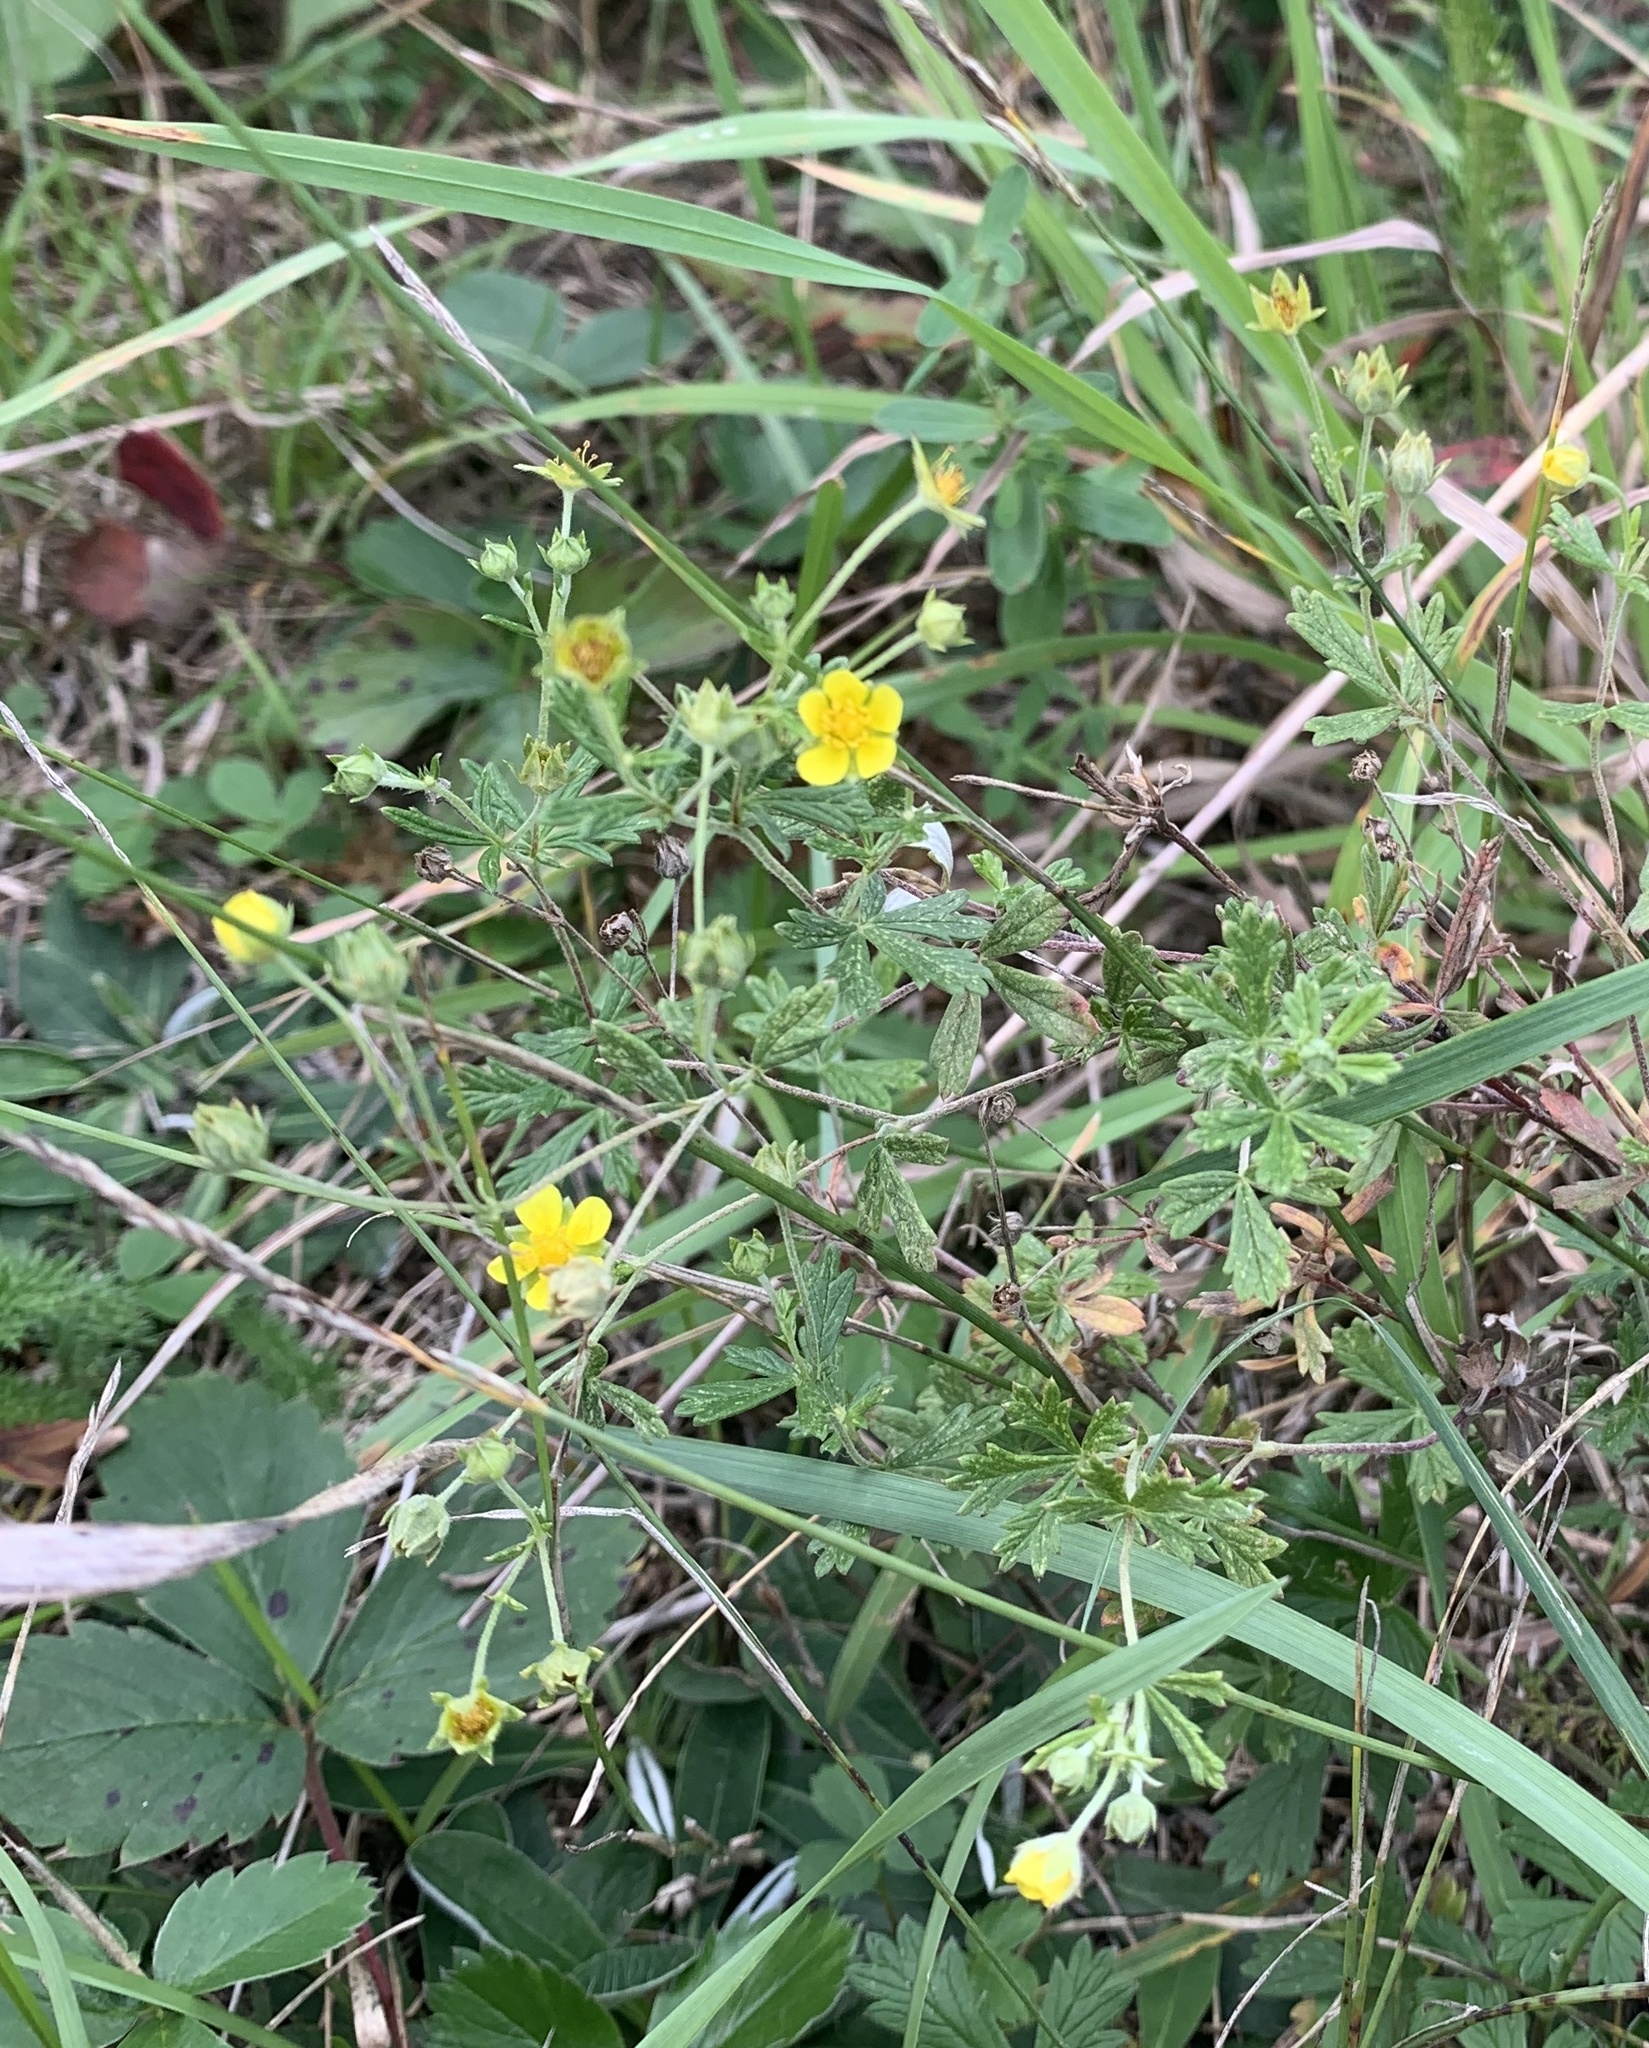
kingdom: Plantae
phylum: Tracheophyta
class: Magnoliopsida
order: Rosales
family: Rosaceae
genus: Potentilla
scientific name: Potentilla argentea
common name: Hoary cinquefoil
